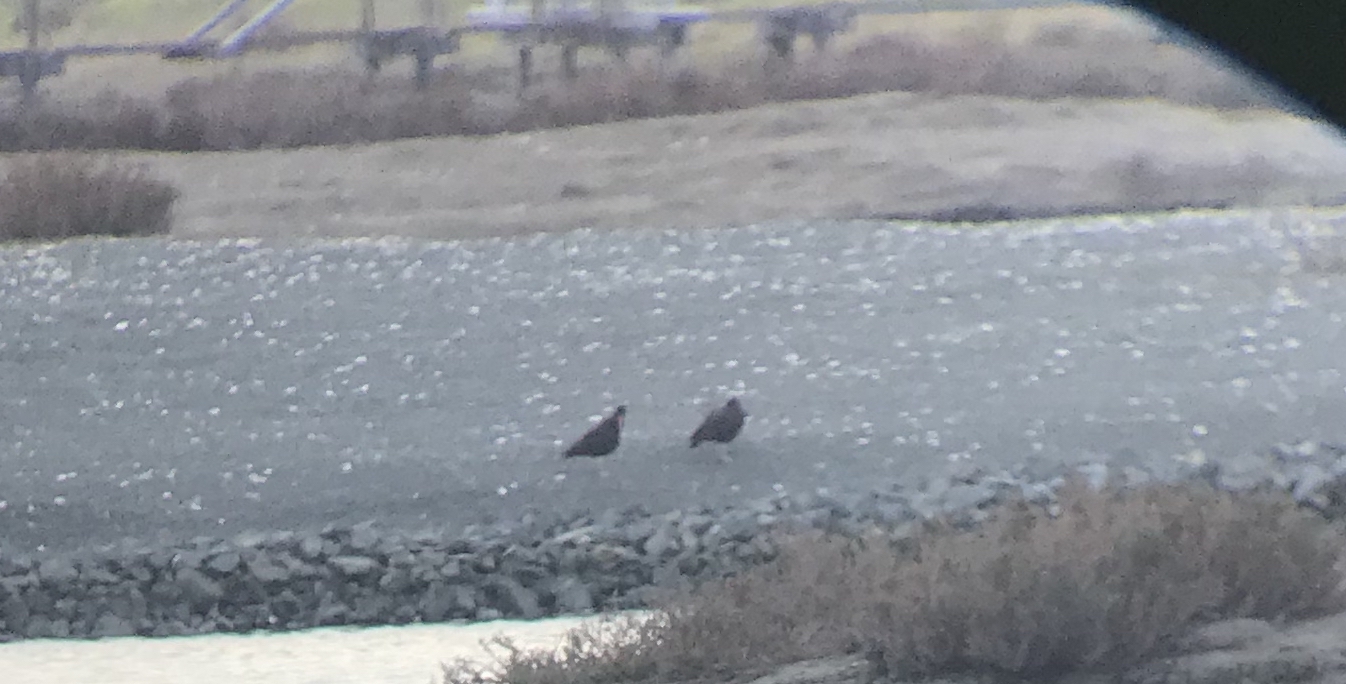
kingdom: Animalia
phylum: Chordata
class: Aves
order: Charadriiformes
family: Haematopodidae
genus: Haematopus
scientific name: Haematopus bachmani
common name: Black oystercatcher
